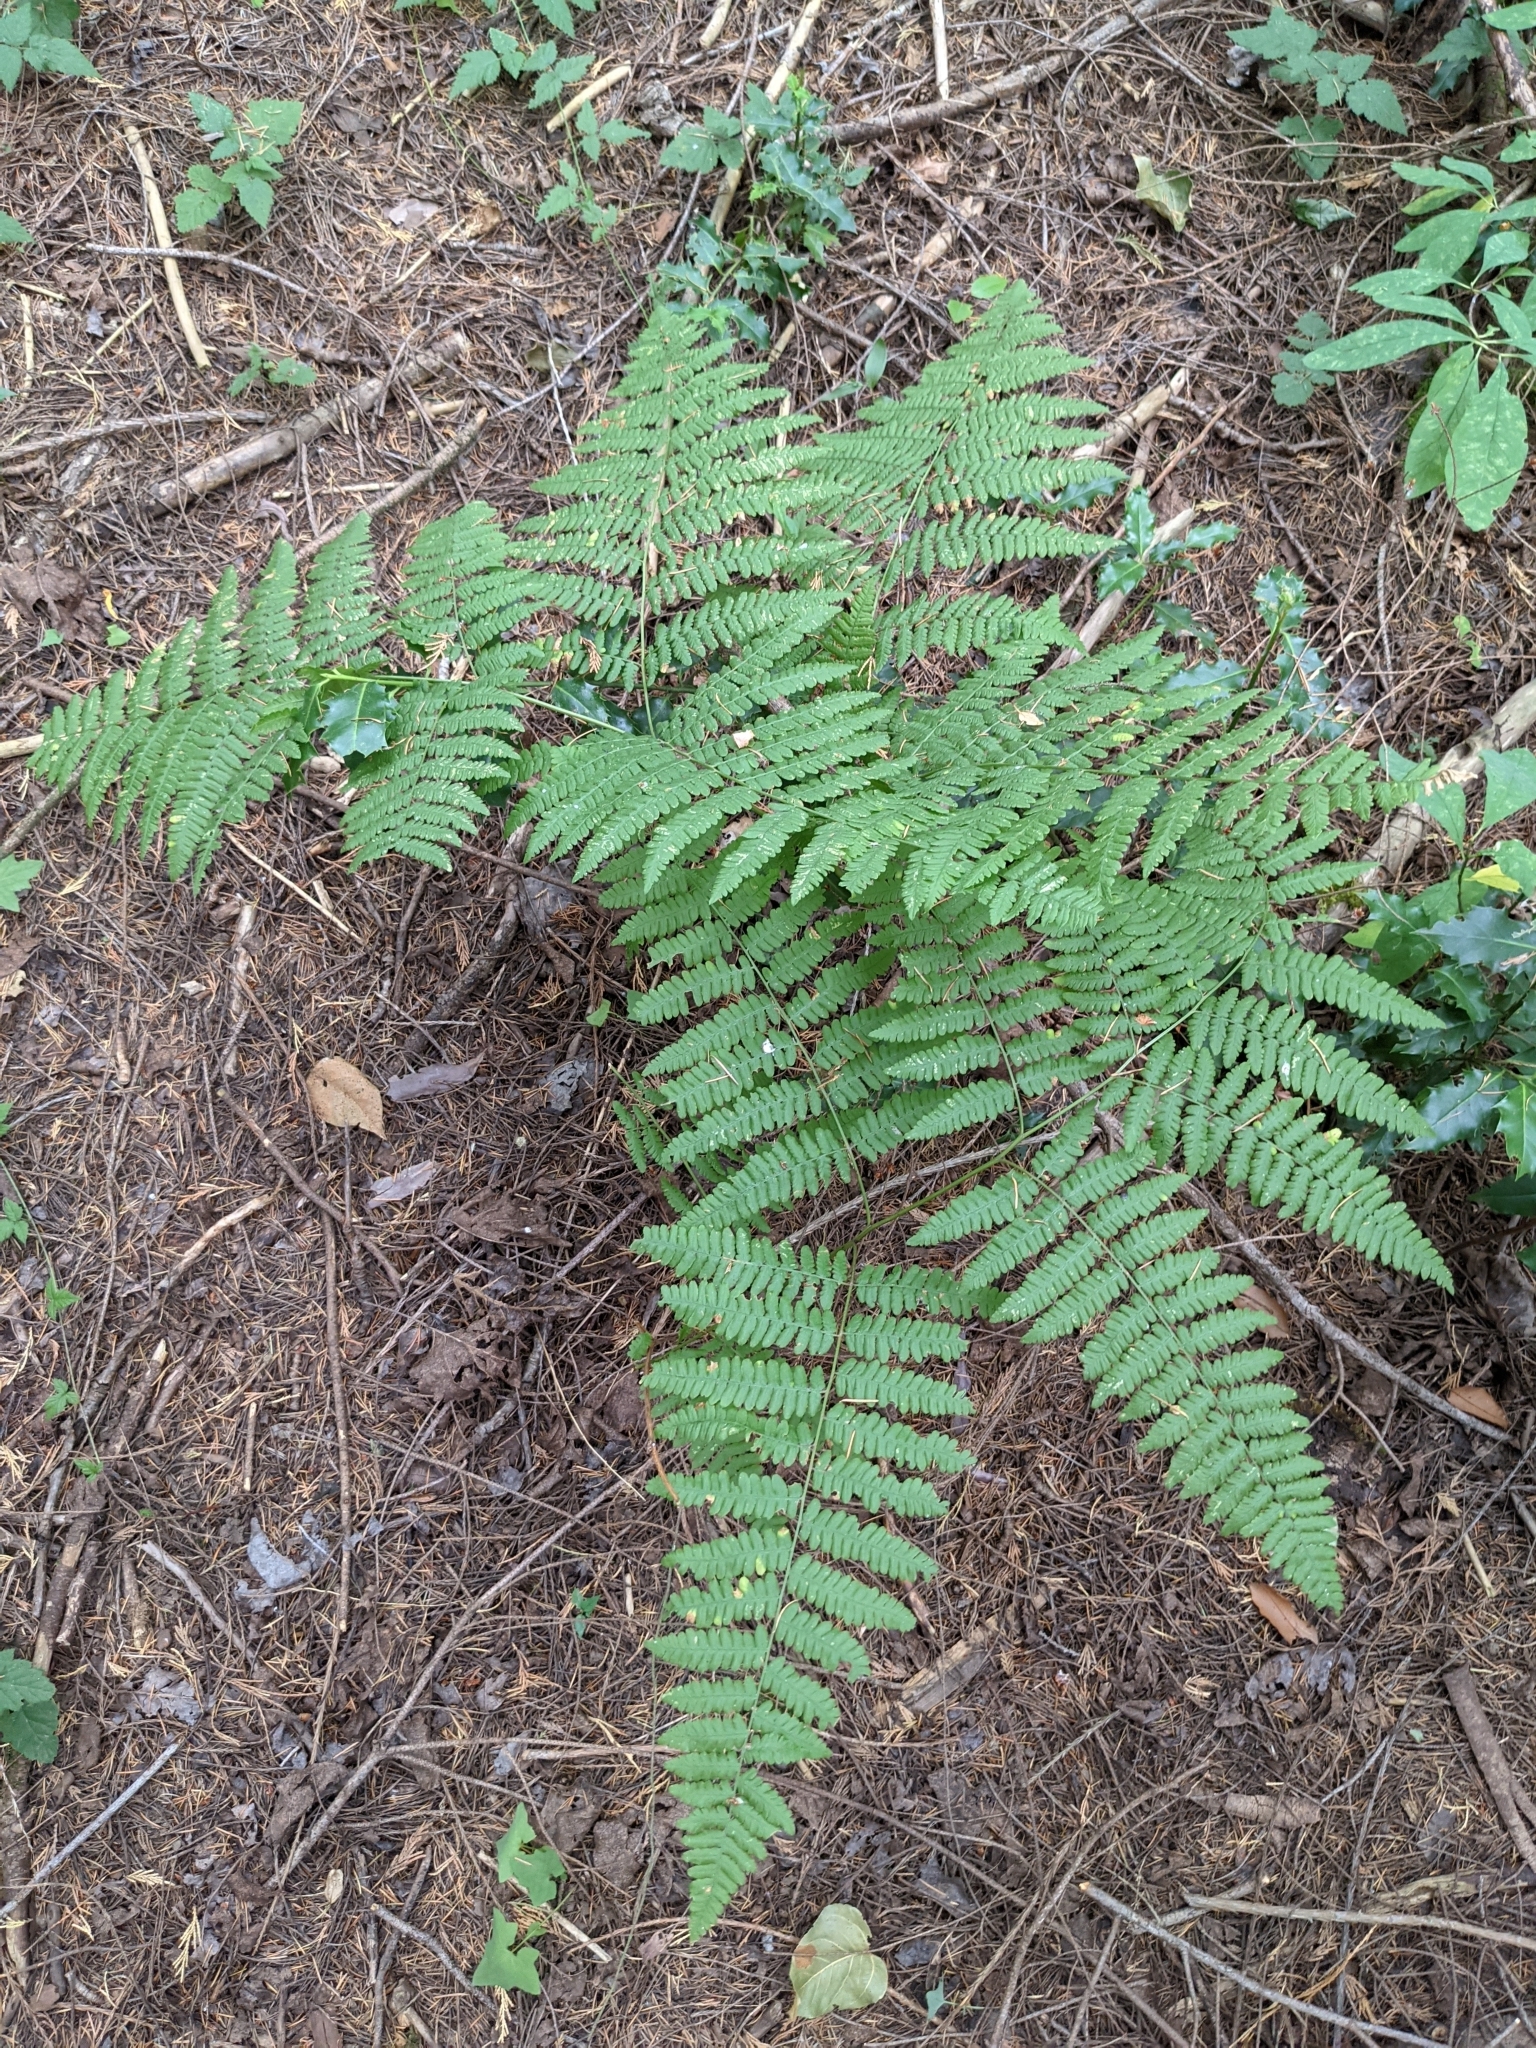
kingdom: Plantae
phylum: Tracheophyta
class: Polypodiopsida
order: Polypodiales
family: Dennstaedtiaceae
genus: Pteridium
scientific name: Pteridium aquilinum
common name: Bracken
